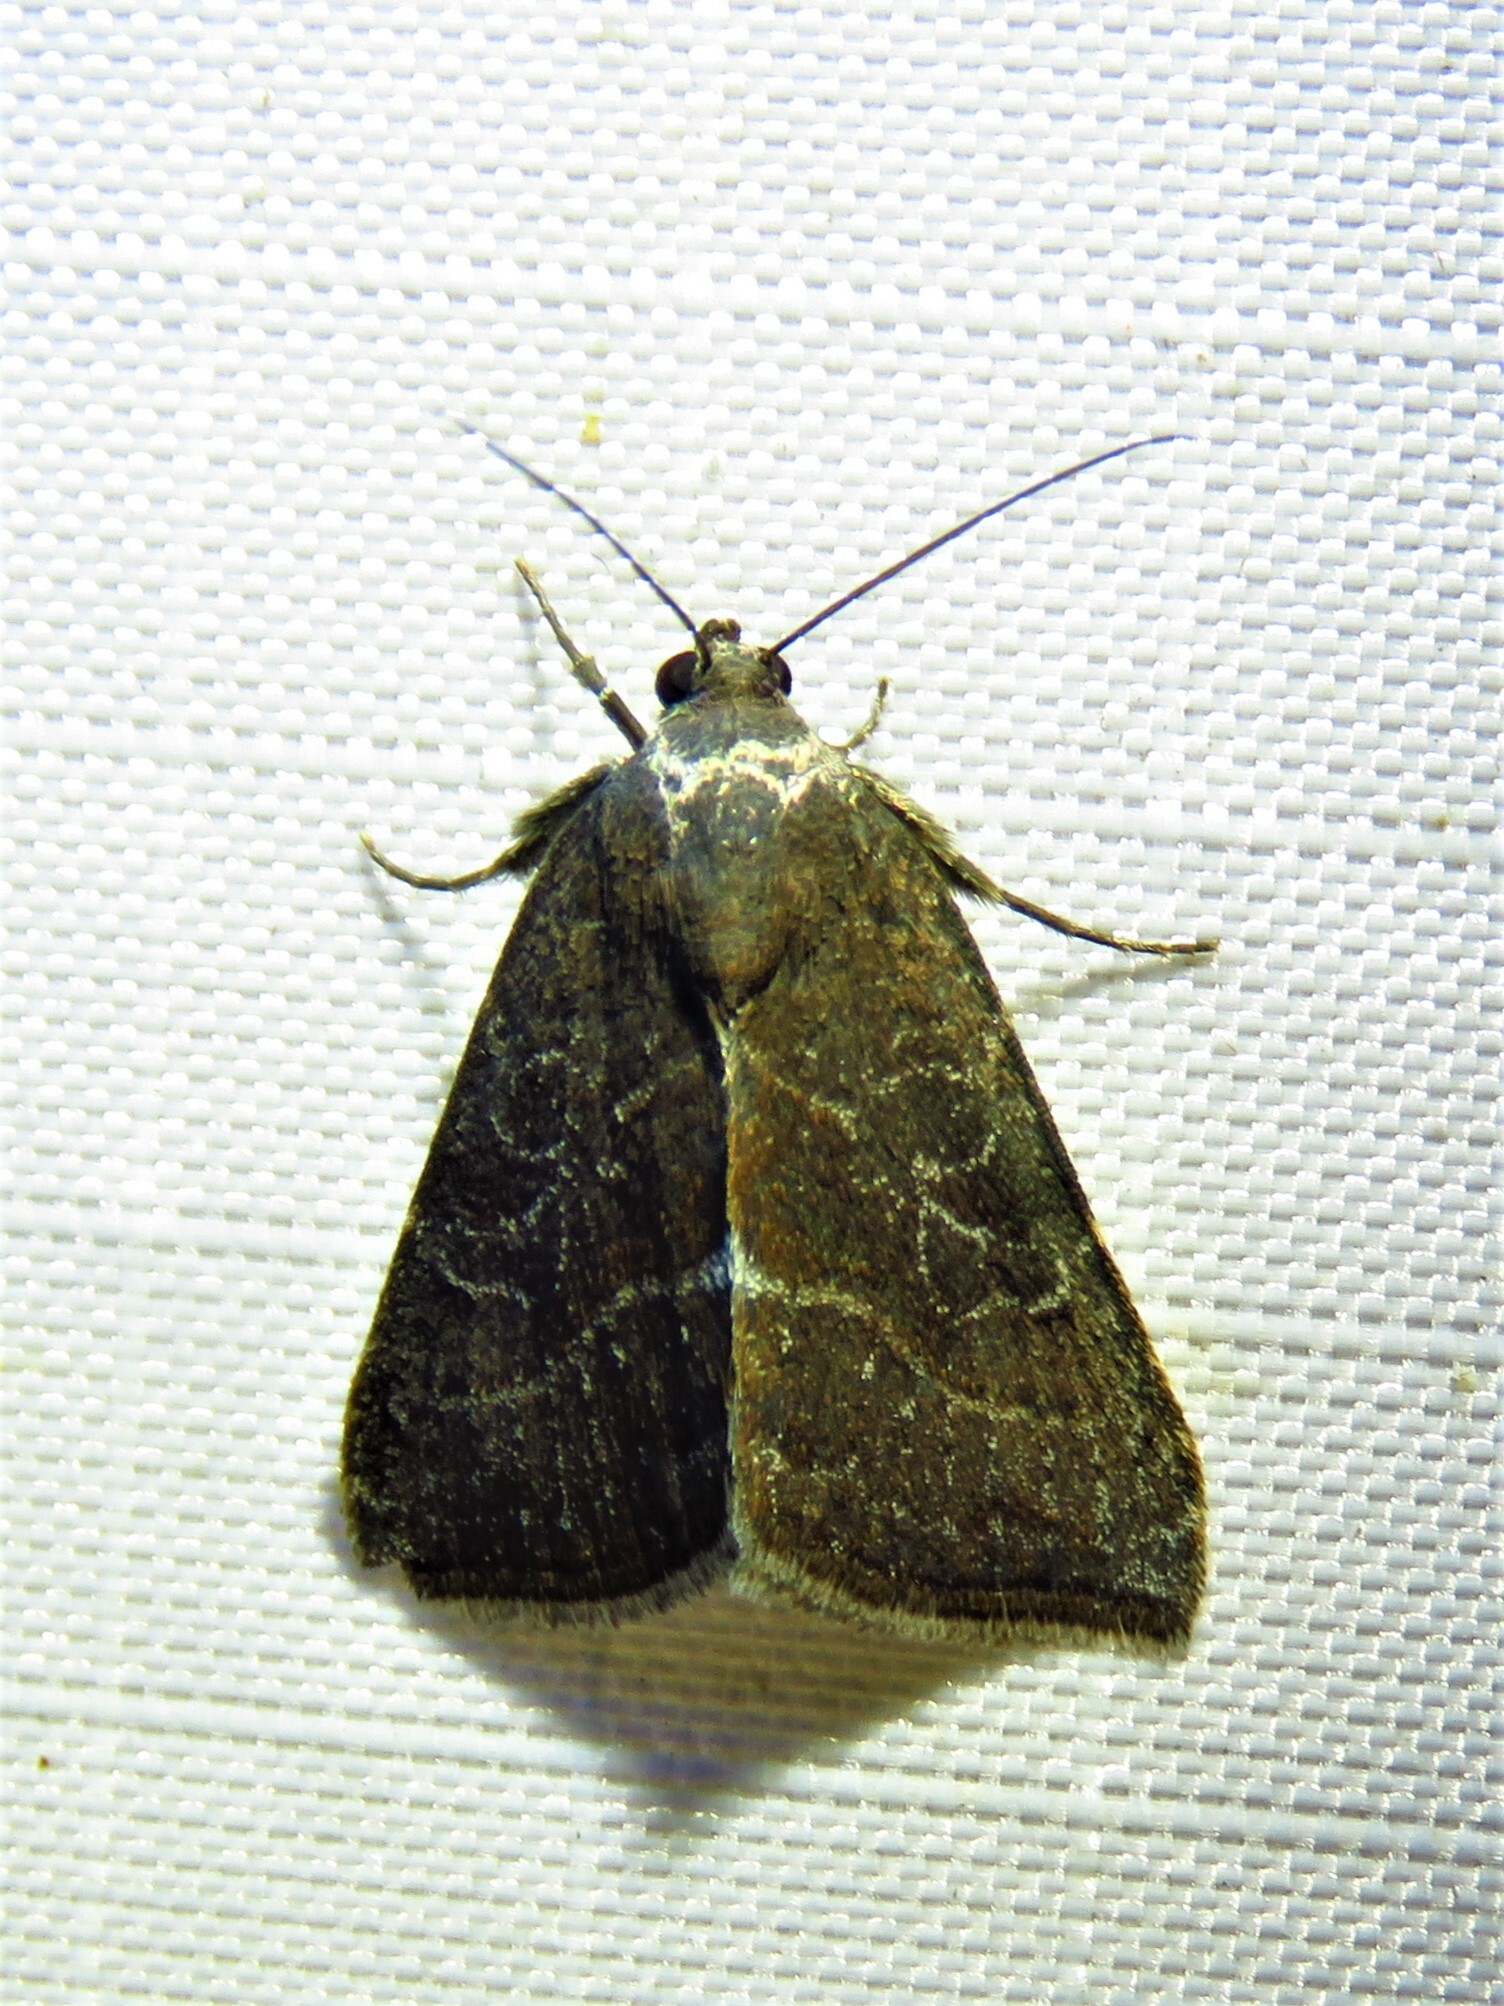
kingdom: Animalia
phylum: Arthropoda
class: Insecta
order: Lepidoptera
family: Noctuidae
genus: Galgula
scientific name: Galgula partita
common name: Wedgeling
